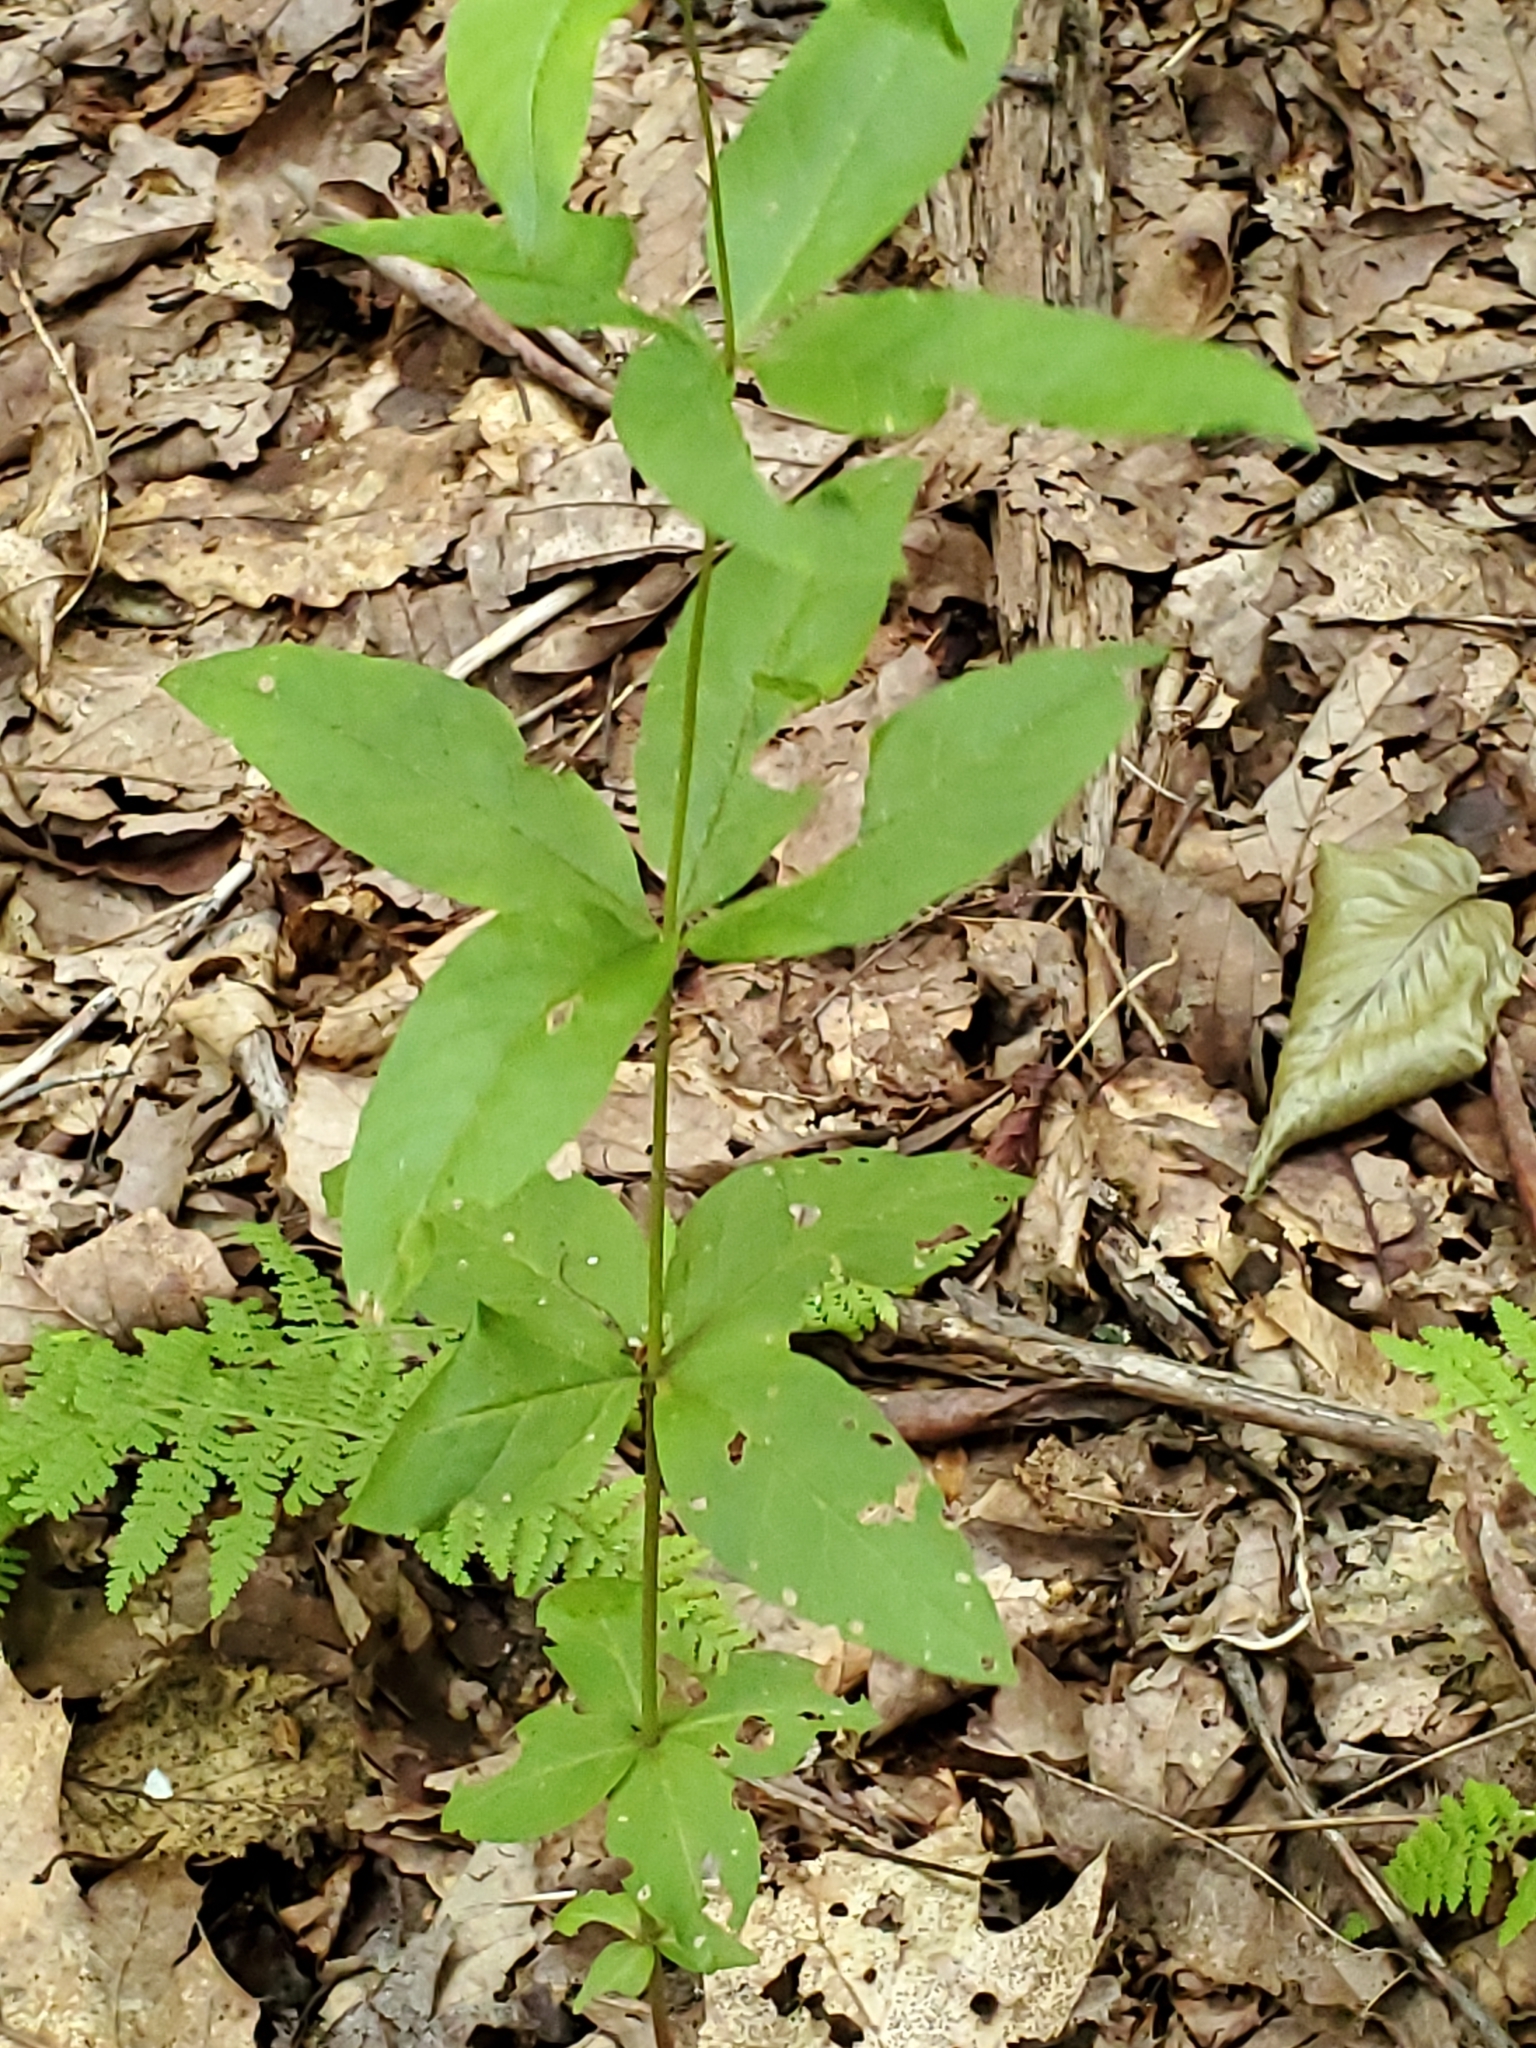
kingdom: Plantae
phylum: Tracheophyta
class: Magnoliopsida
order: Ericales
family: Primulaceae
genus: Lysimachia
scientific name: Lysimachia quadrifolia
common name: Whorled loosestrife
